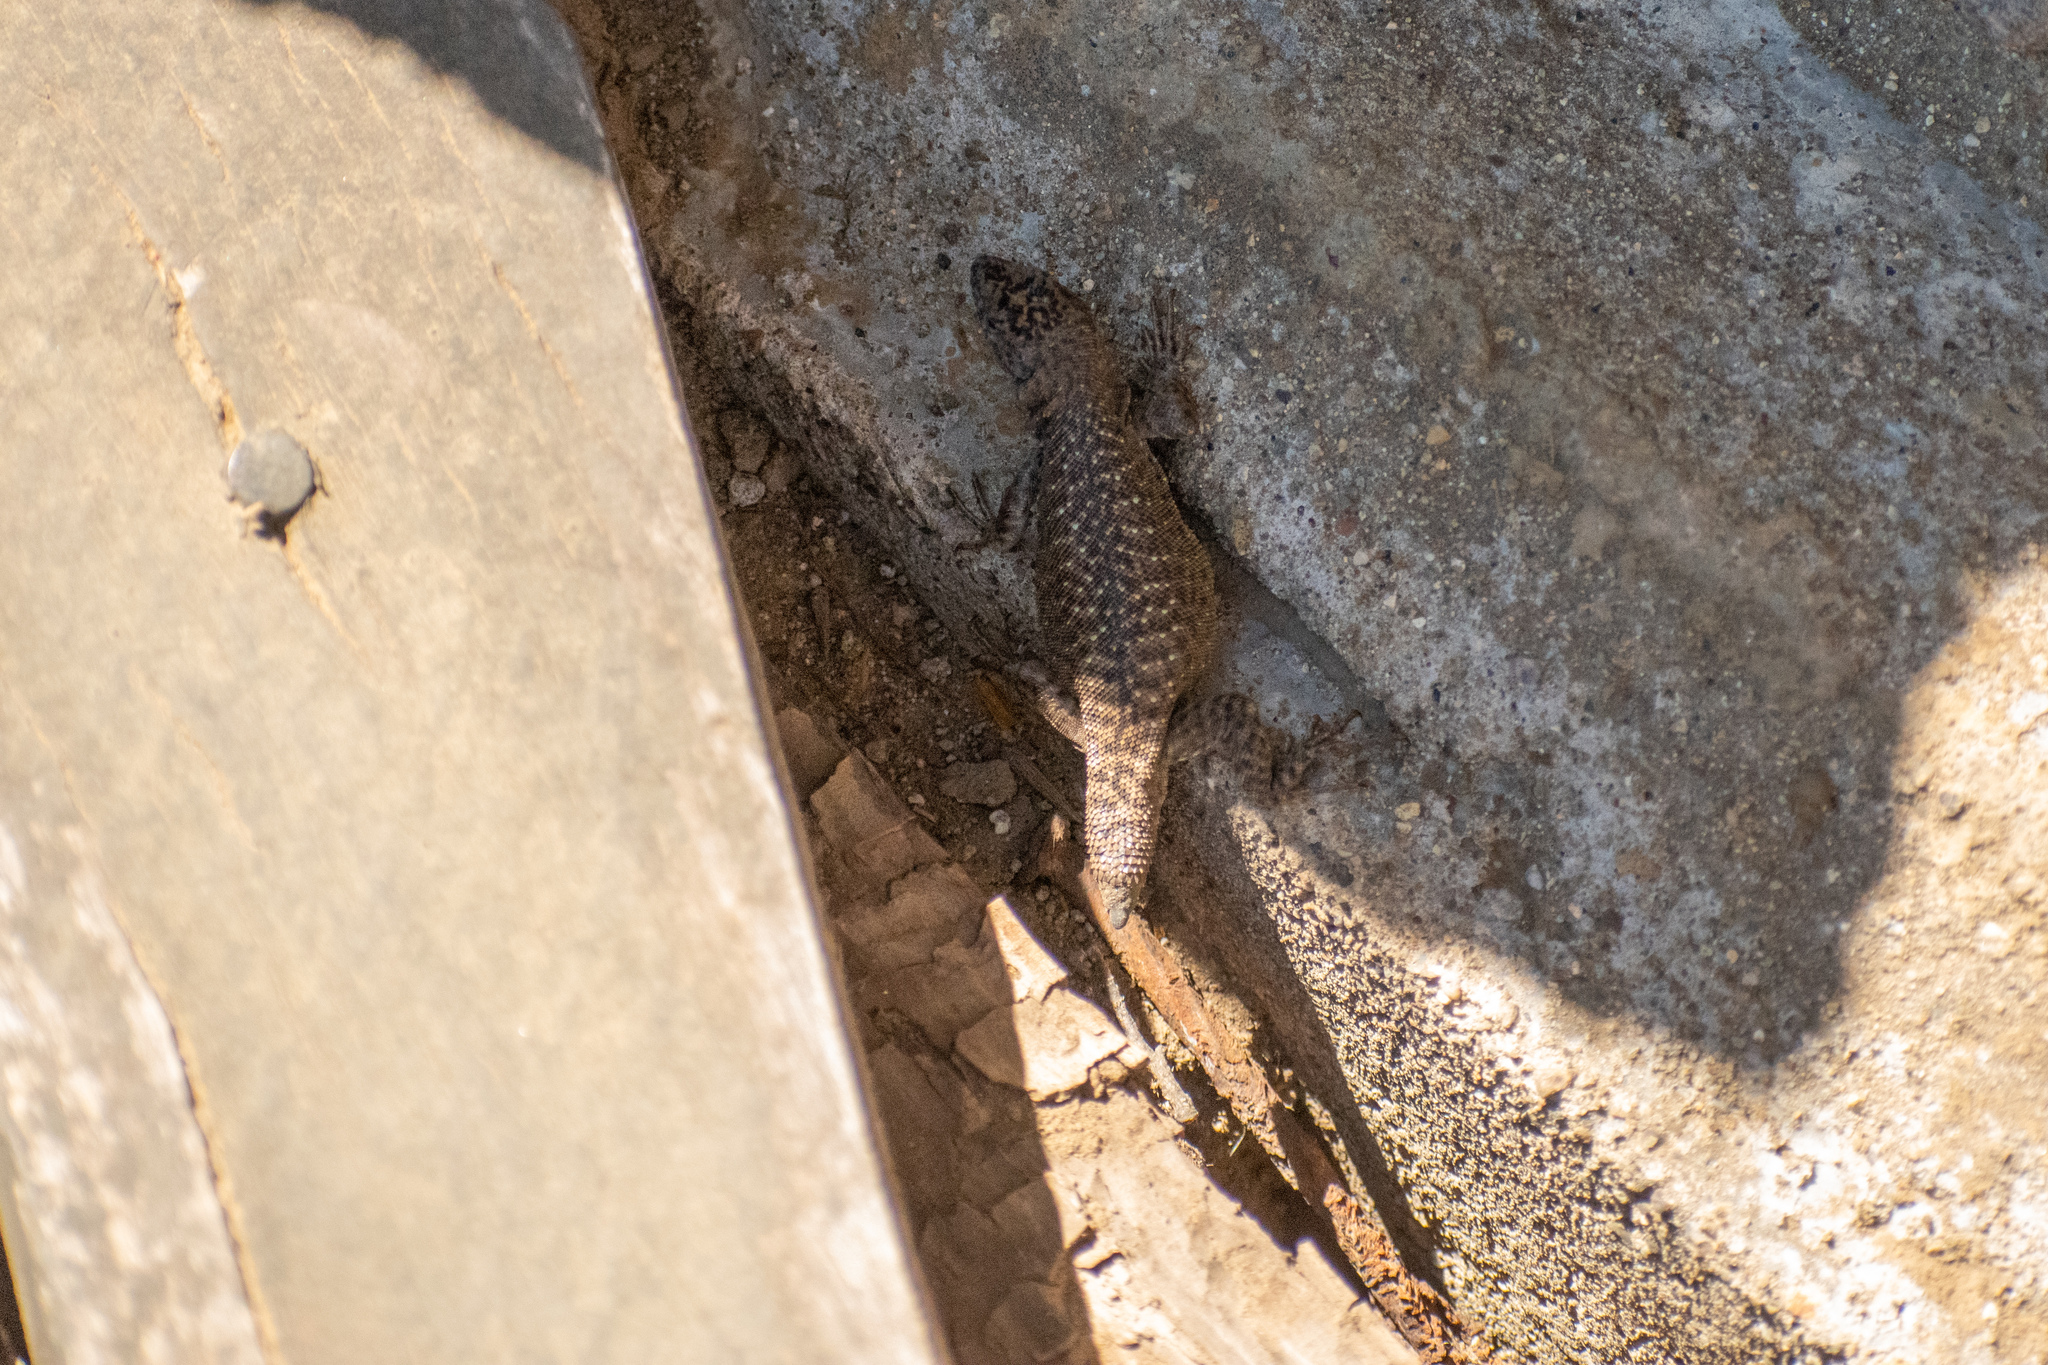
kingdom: Animalia
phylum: Chordata
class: Squamata
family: Liolaemidae
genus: Liolaemus
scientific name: Liolaemus elongatus
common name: Elongate tree iguana
